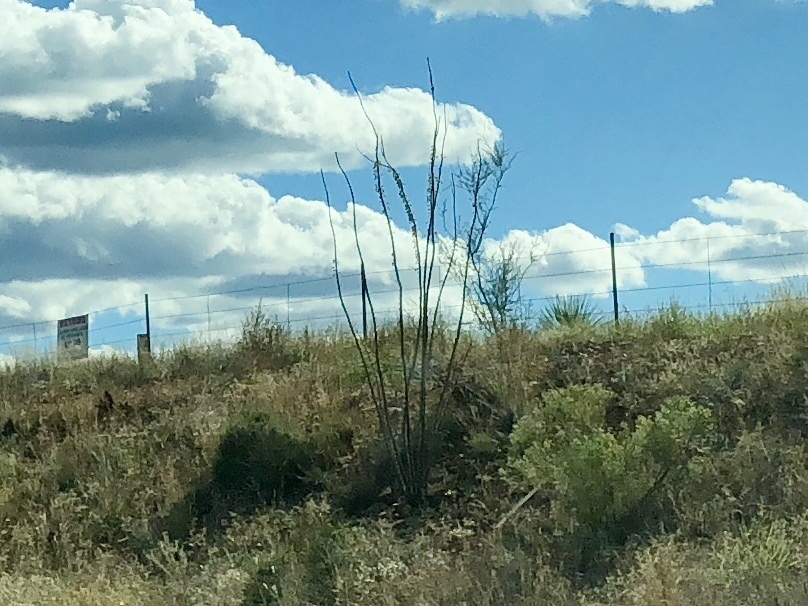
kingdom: Plantae
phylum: Tracheophyta
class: Magnoliopsida
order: Ericales
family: Fouquieriaceae
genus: Fouquieria
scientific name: Fouquieria splendens
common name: Vine-cactus
